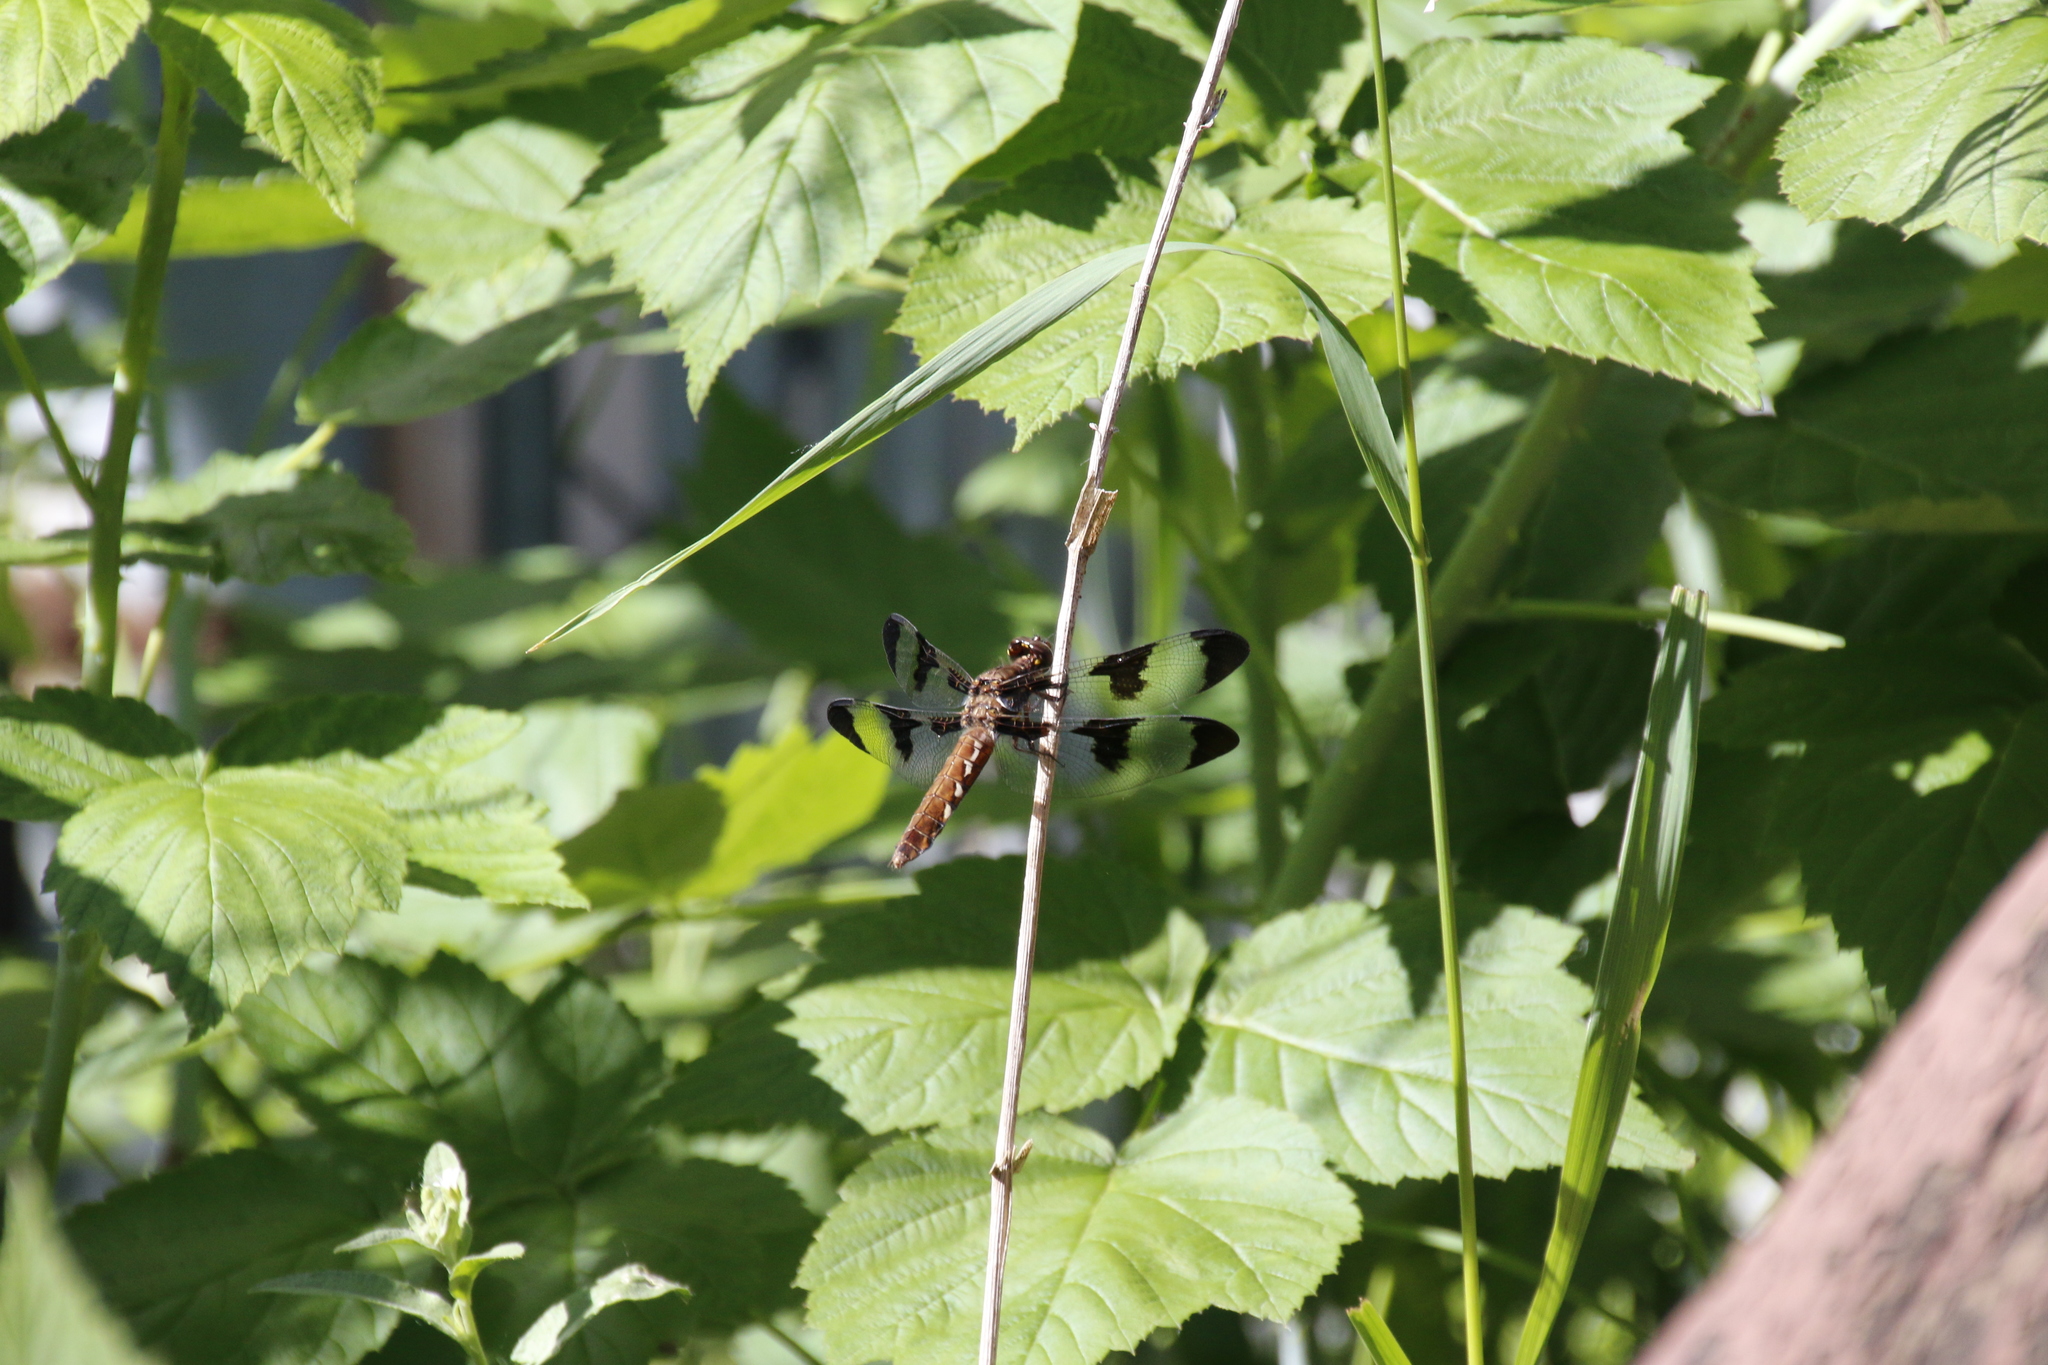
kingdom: Animalia
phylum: Arthropoda
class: Insecta
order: Odonata
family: Libellulidae
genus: Plathemis
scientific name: Plathemis lydia
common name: Common whitetail
